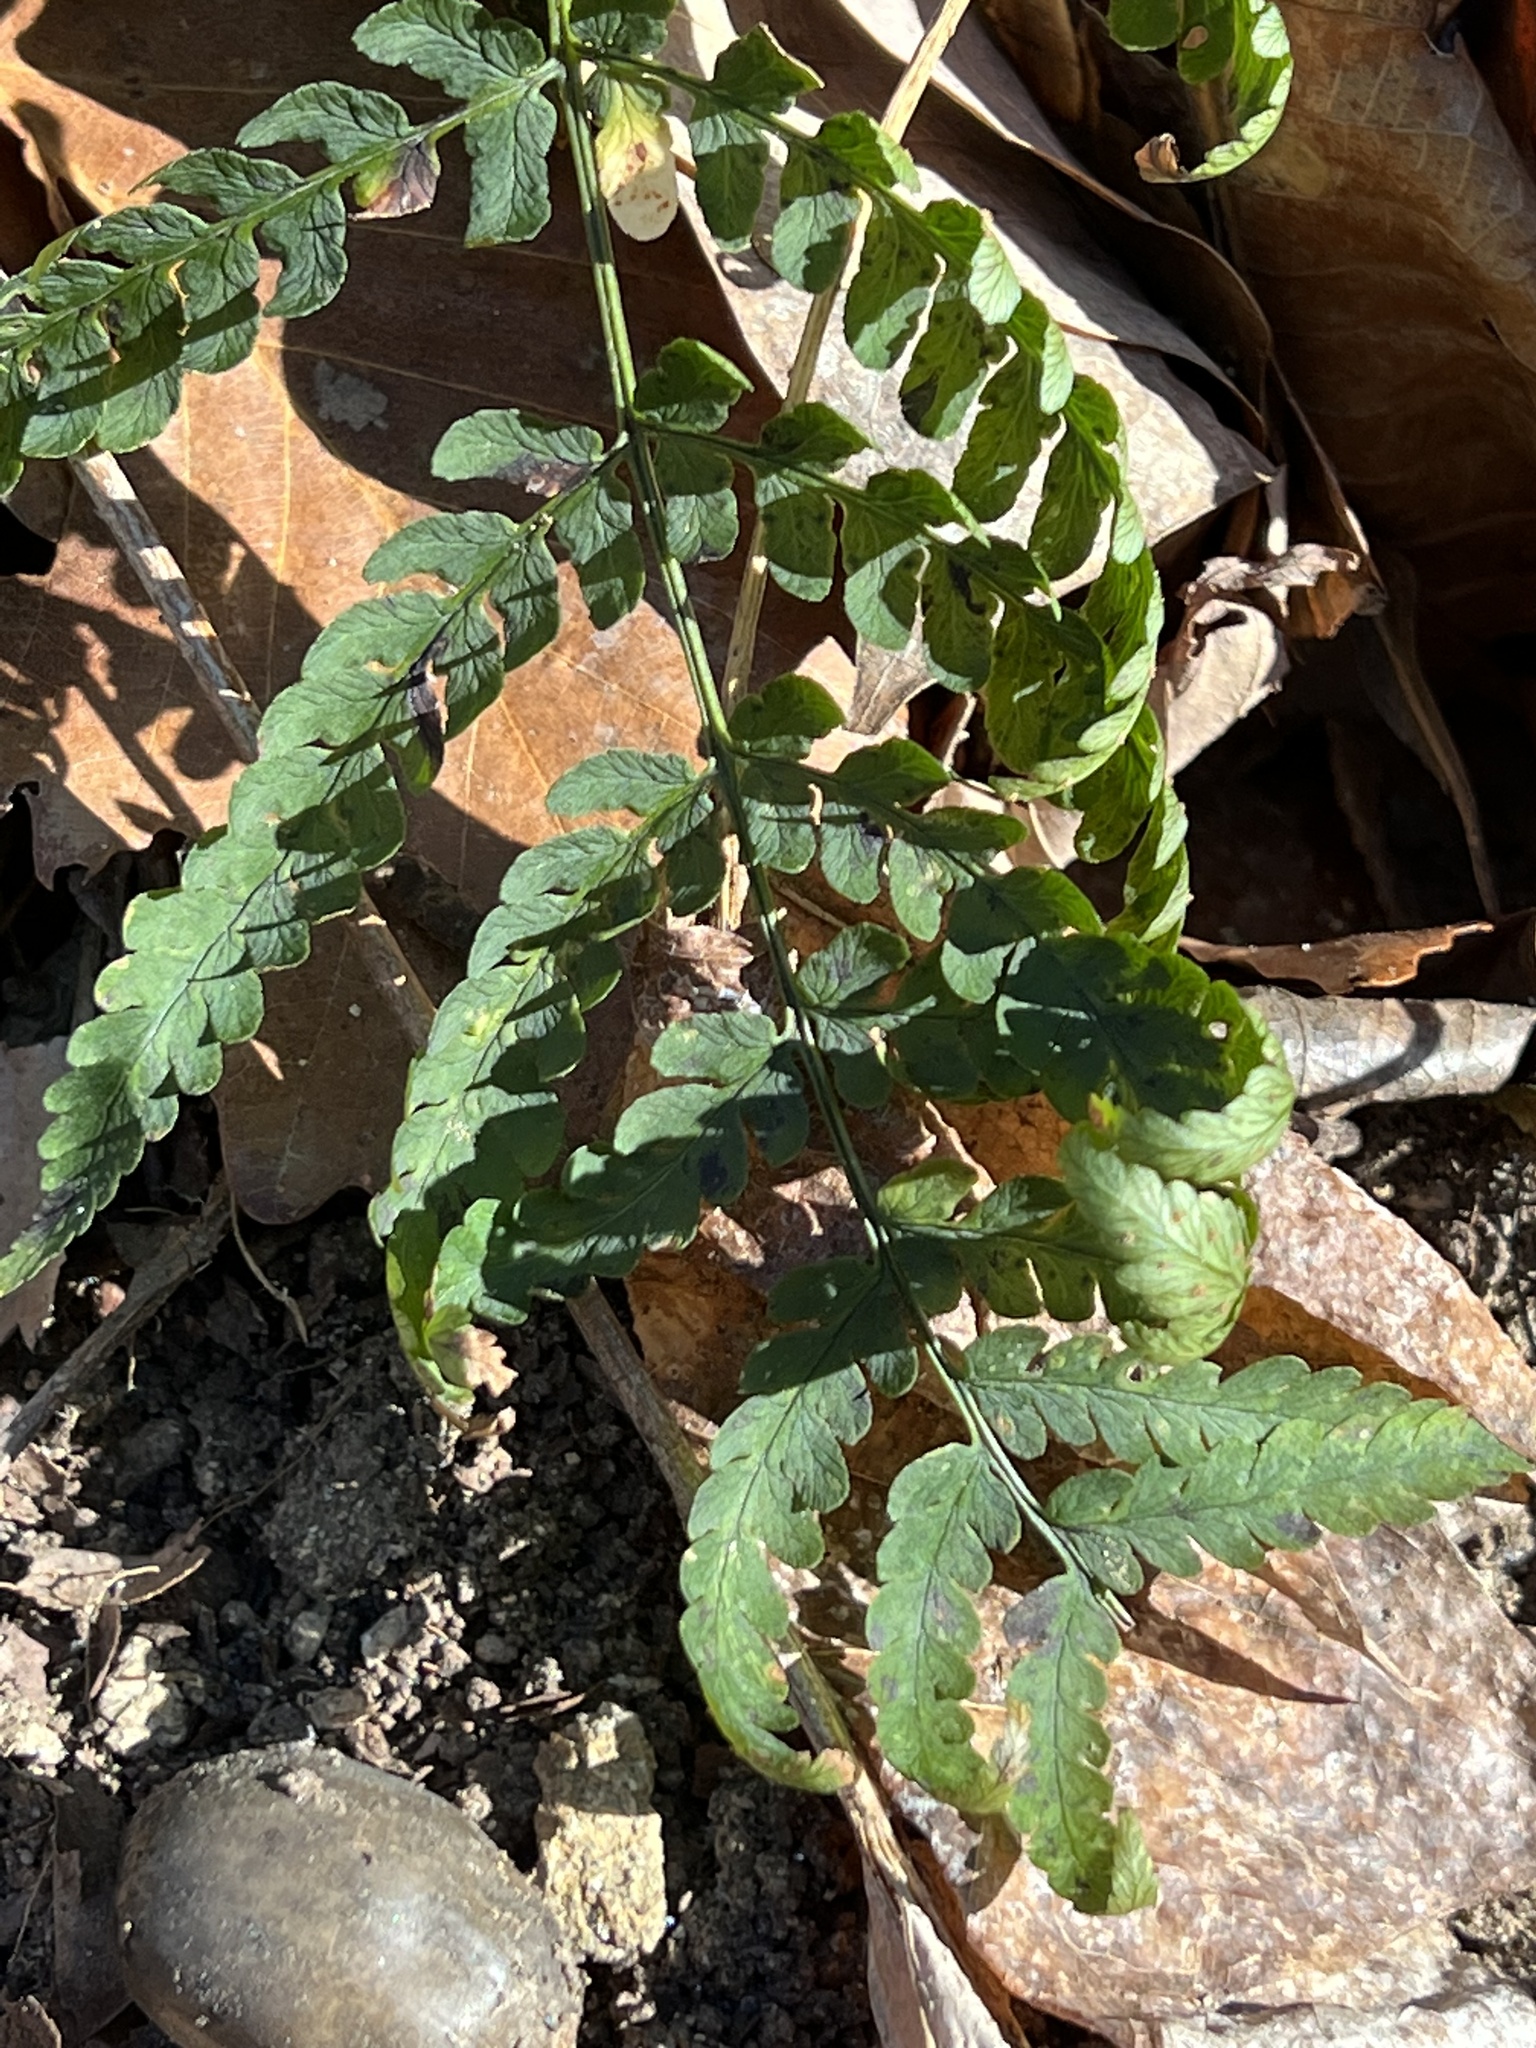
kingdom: Plantae
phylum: Tracheophyta
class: Polypodiopsida
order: Polypodiales
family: Dryopteridaceae
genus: Dryopteris
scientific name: Dryopteris marginalis
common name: Marginal wood fern
